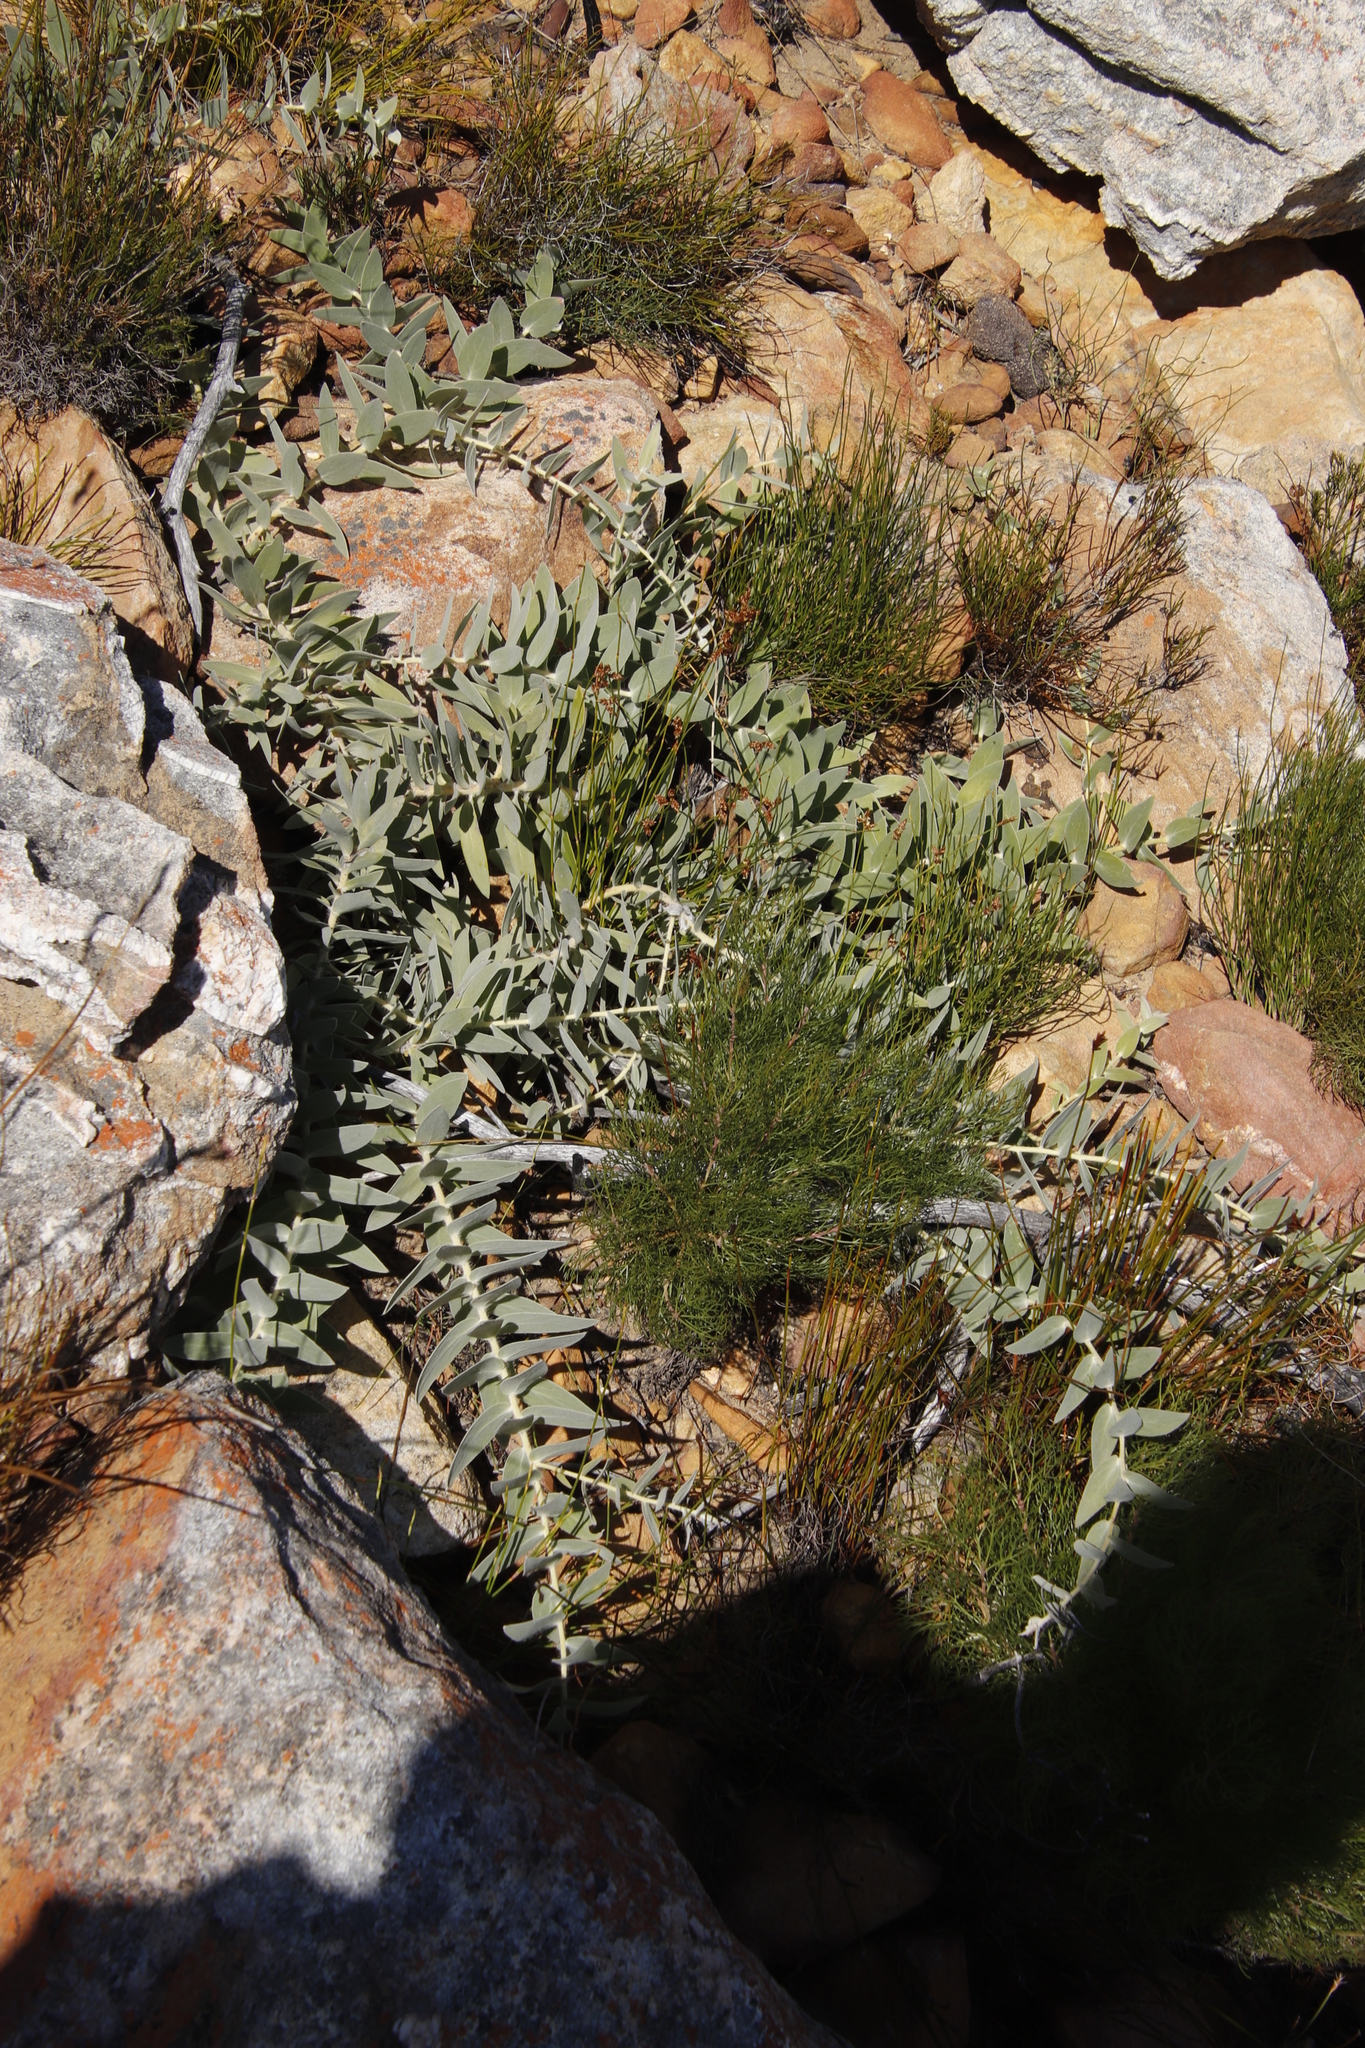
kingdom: Plantae
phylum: Tracheophyta
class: Magnoliopsida
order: Proteales
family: Proteaceae
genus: Leucospermum
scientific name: Leucospermum cordatum
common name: Heart-leaf pincushion
